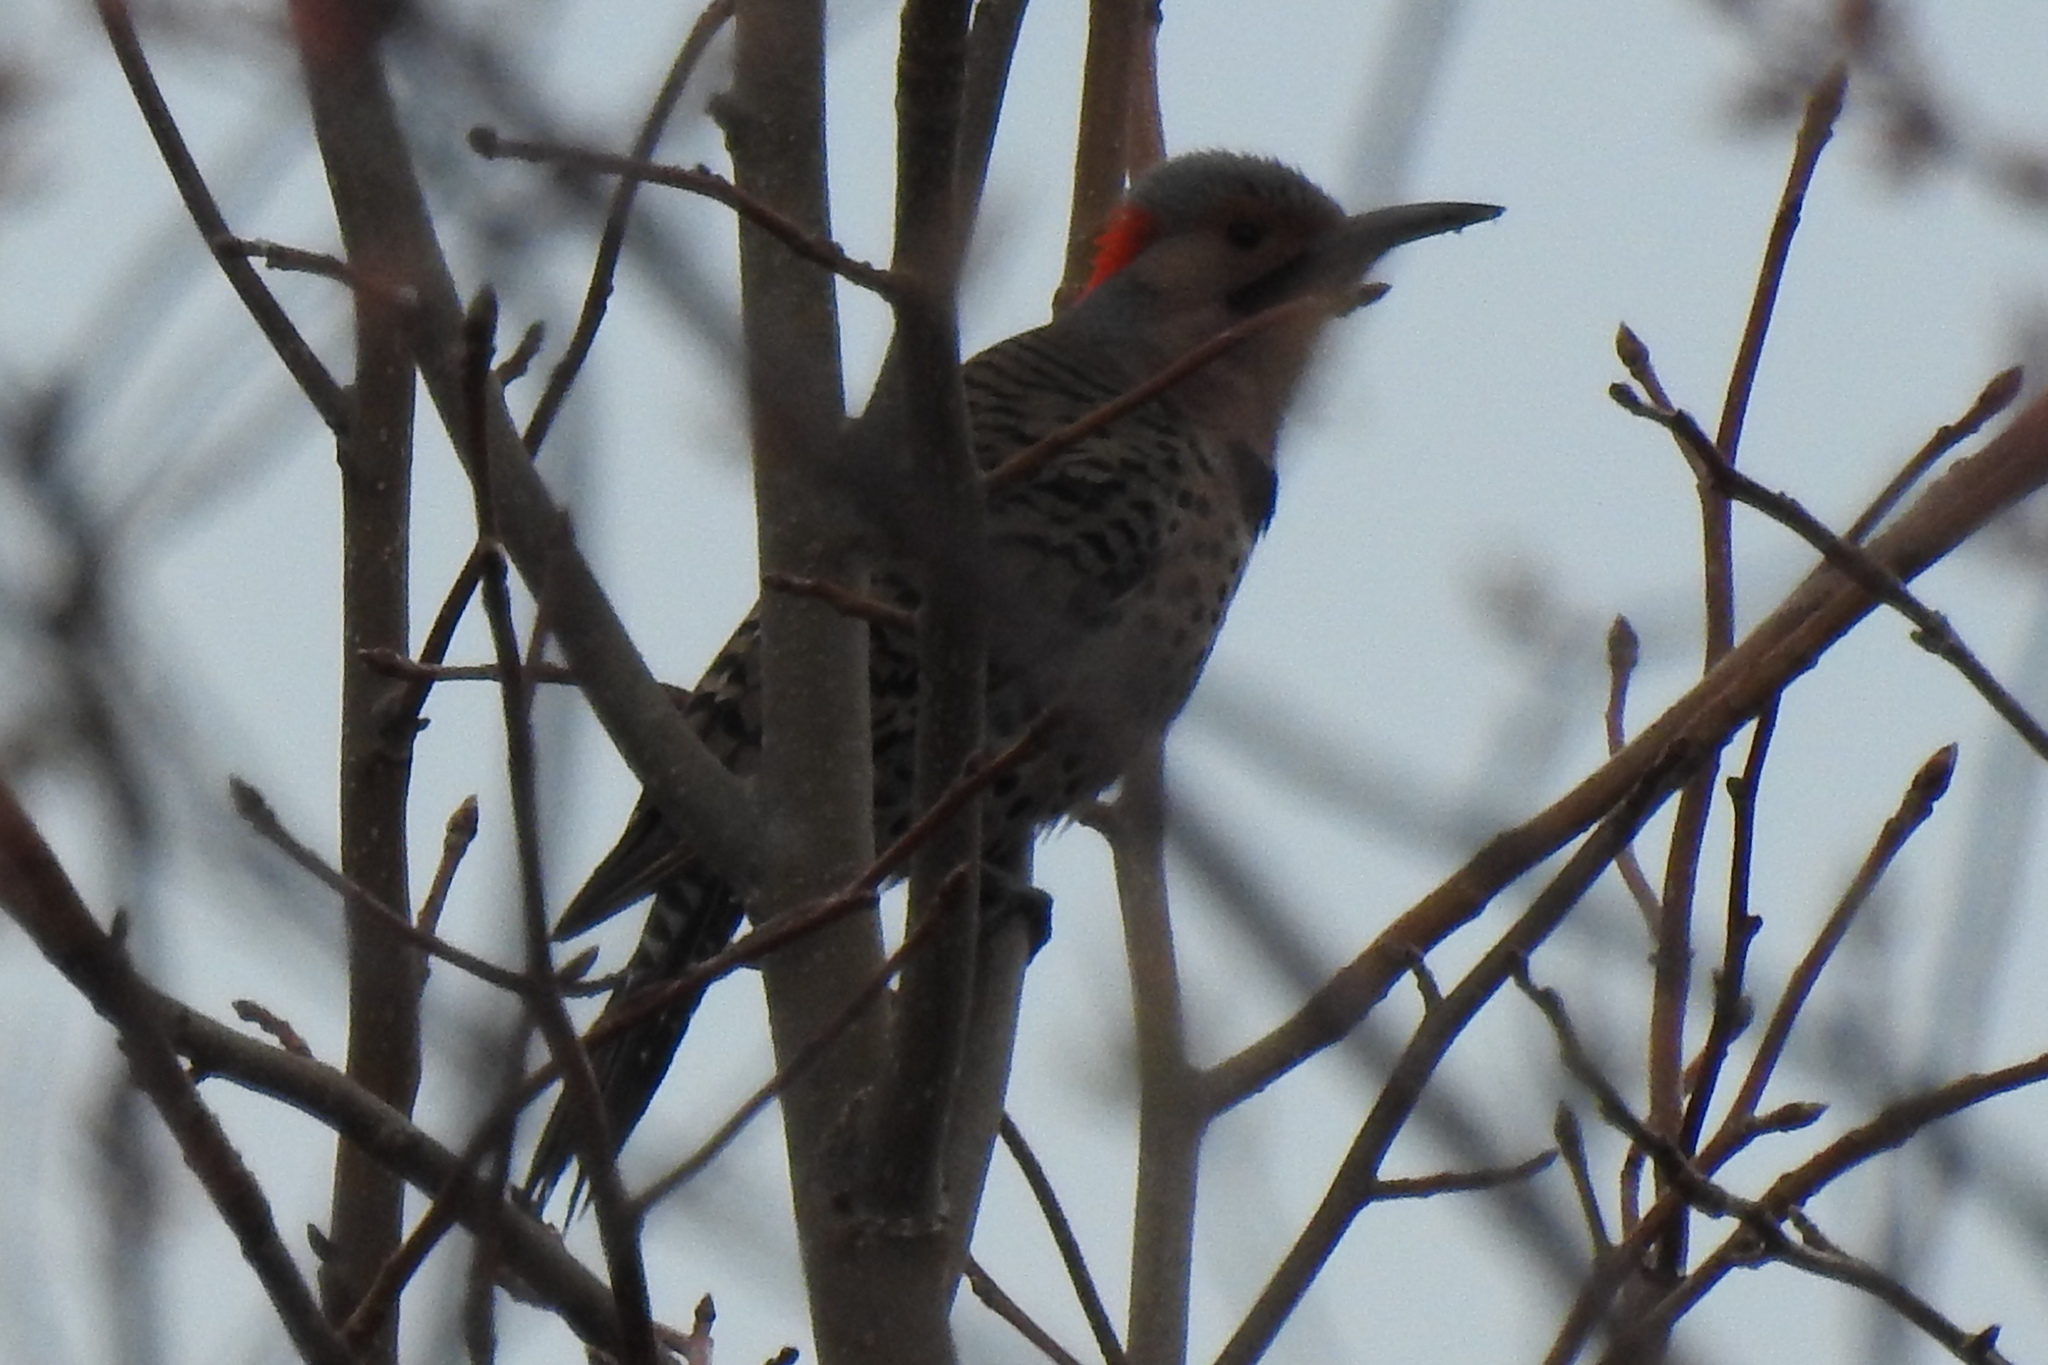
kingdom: Animalia
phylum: Chordata
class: Aves
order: Piciformes
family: Picidae
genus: Colaptes
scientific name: Colaptes auratus
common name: Northern flicker
